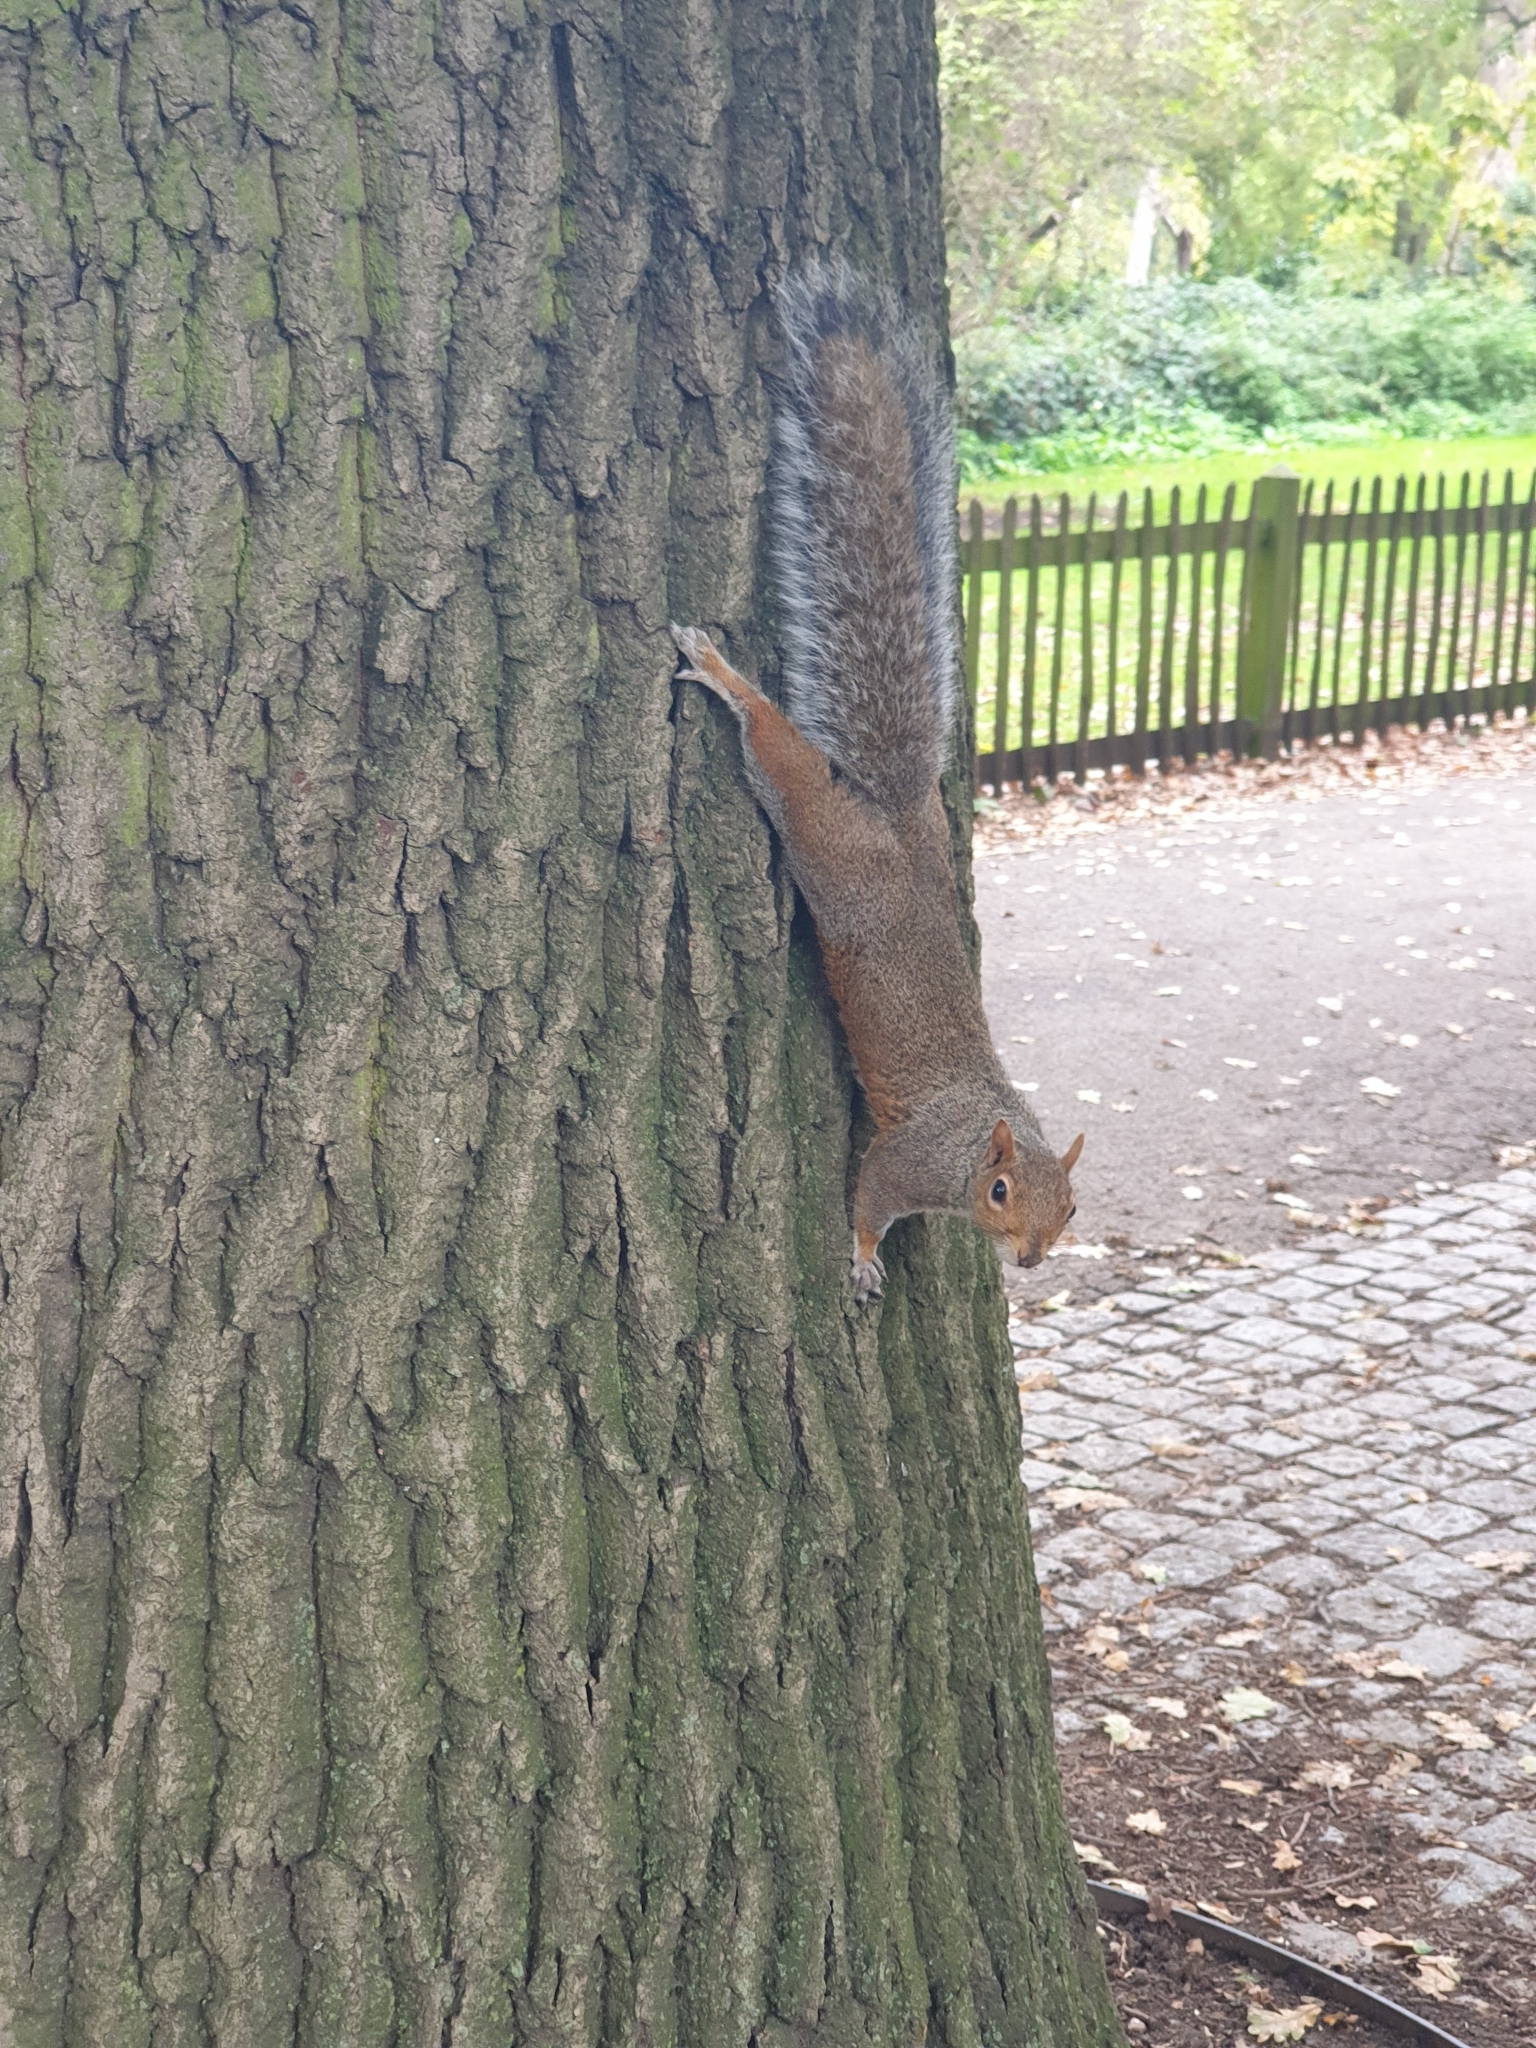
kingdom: Animalia
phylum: Chordata
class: Mammalia
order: Rodentia
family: Sciuridae
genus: Sciurus
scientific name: Sciurus carolinensis
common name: Eastern gray squirrel
